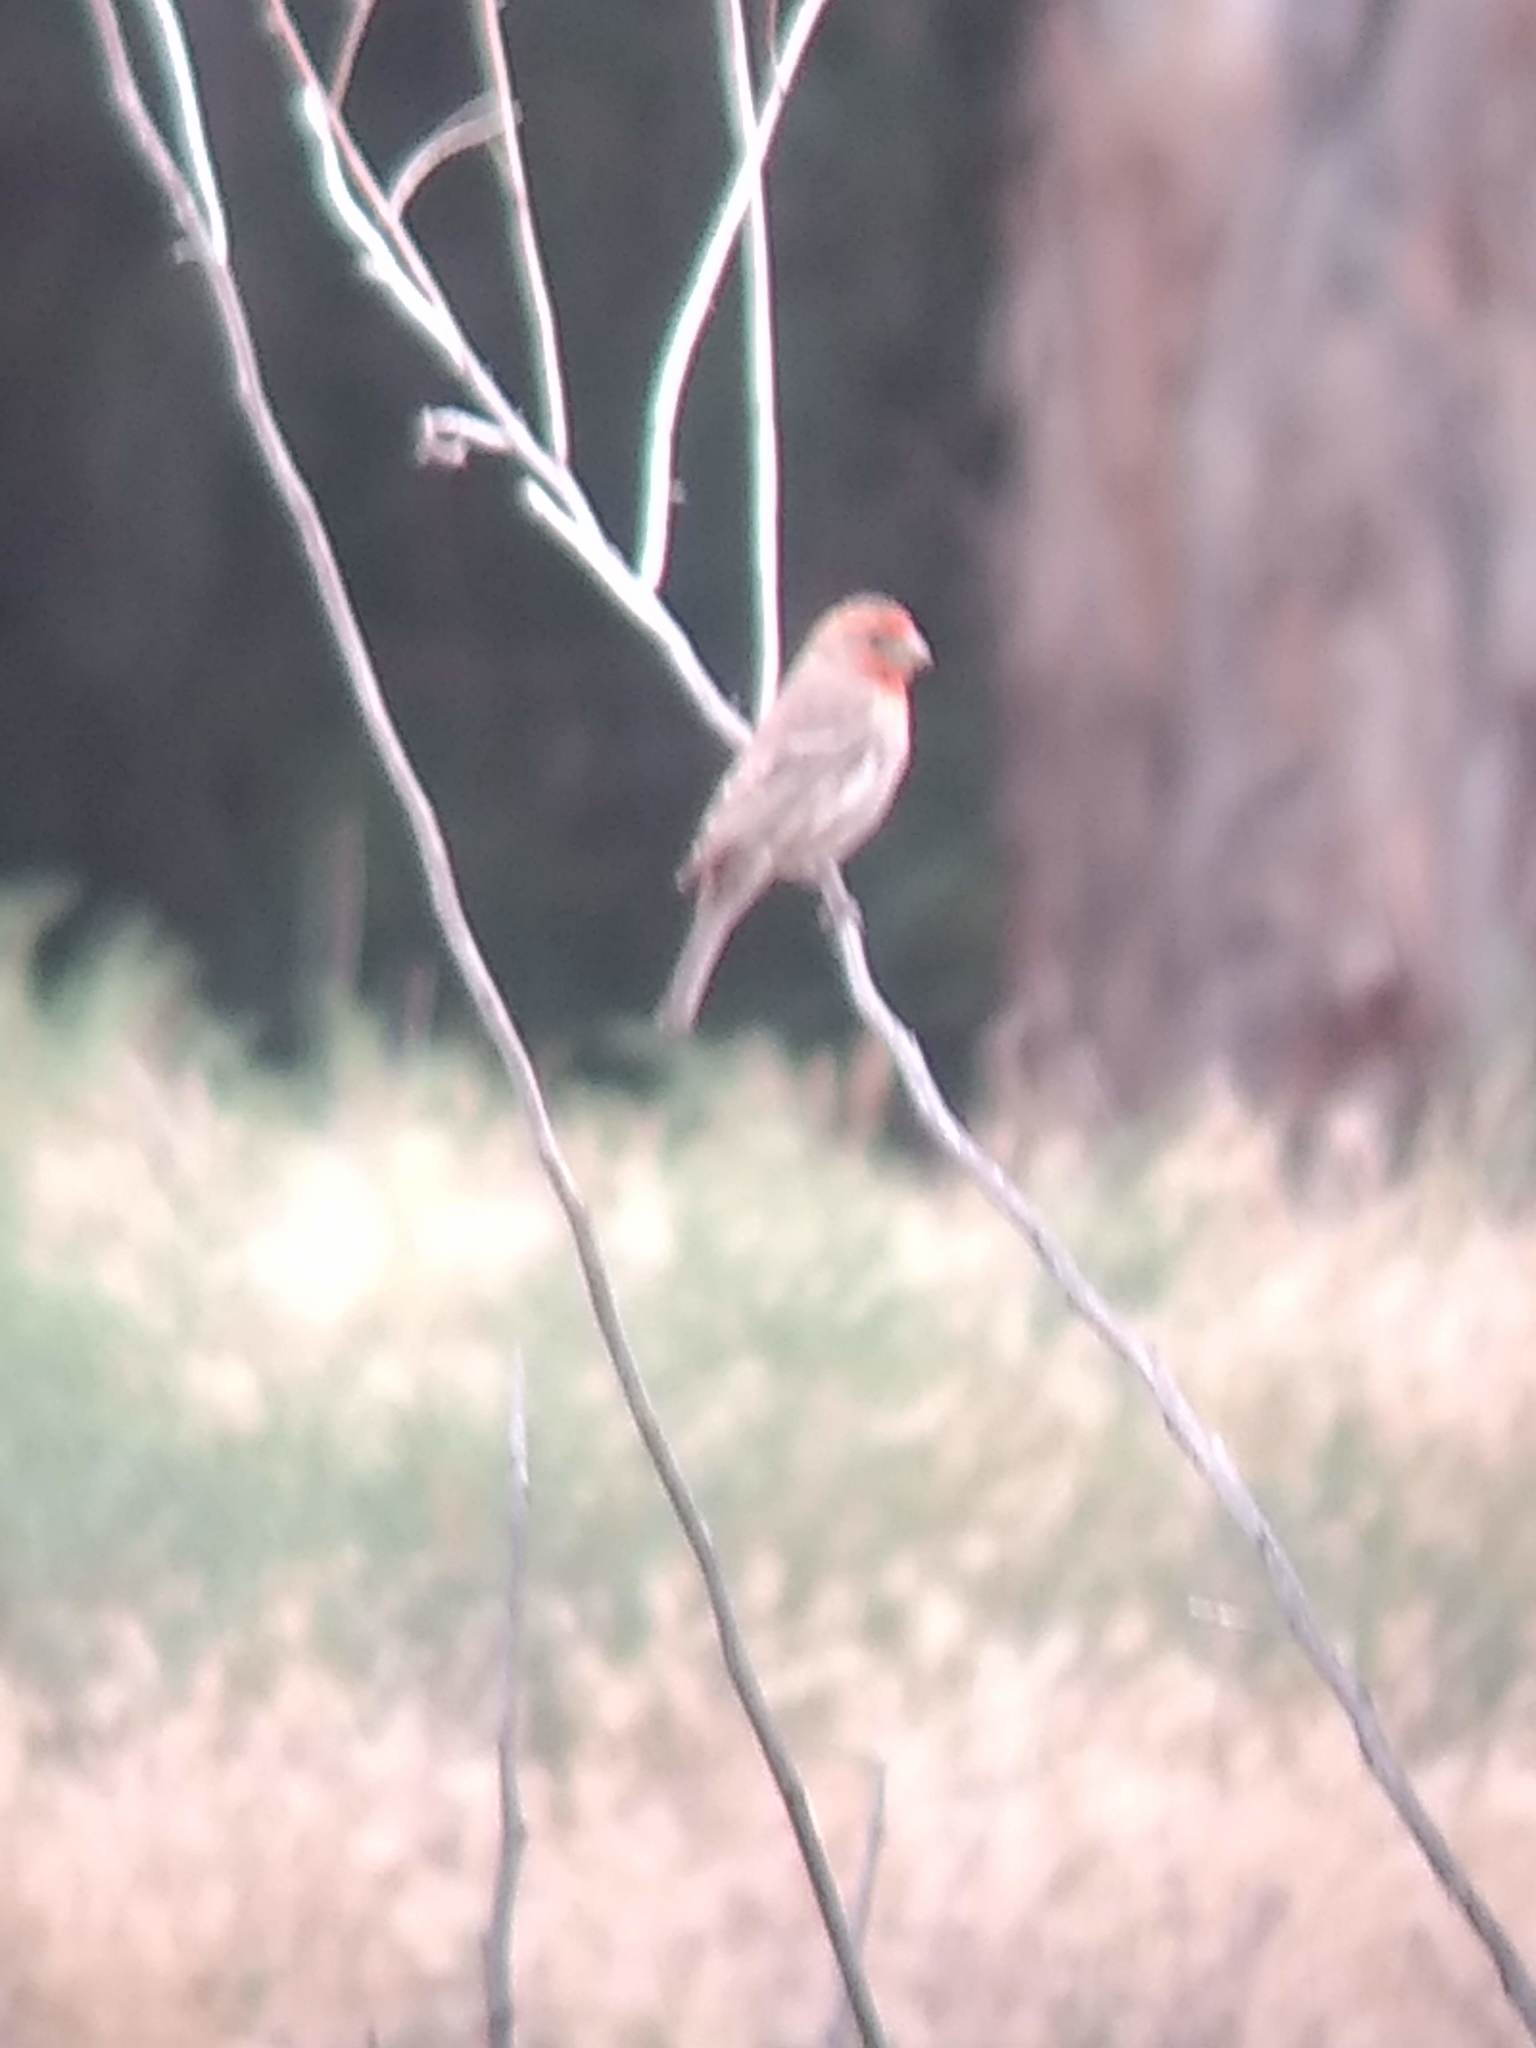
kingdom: Animalia
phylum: Chordata
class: Aves
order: Passeriformes
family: Fringillidae
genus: Haemorhous
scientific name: Haemorhous mexicanus
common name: House finch
